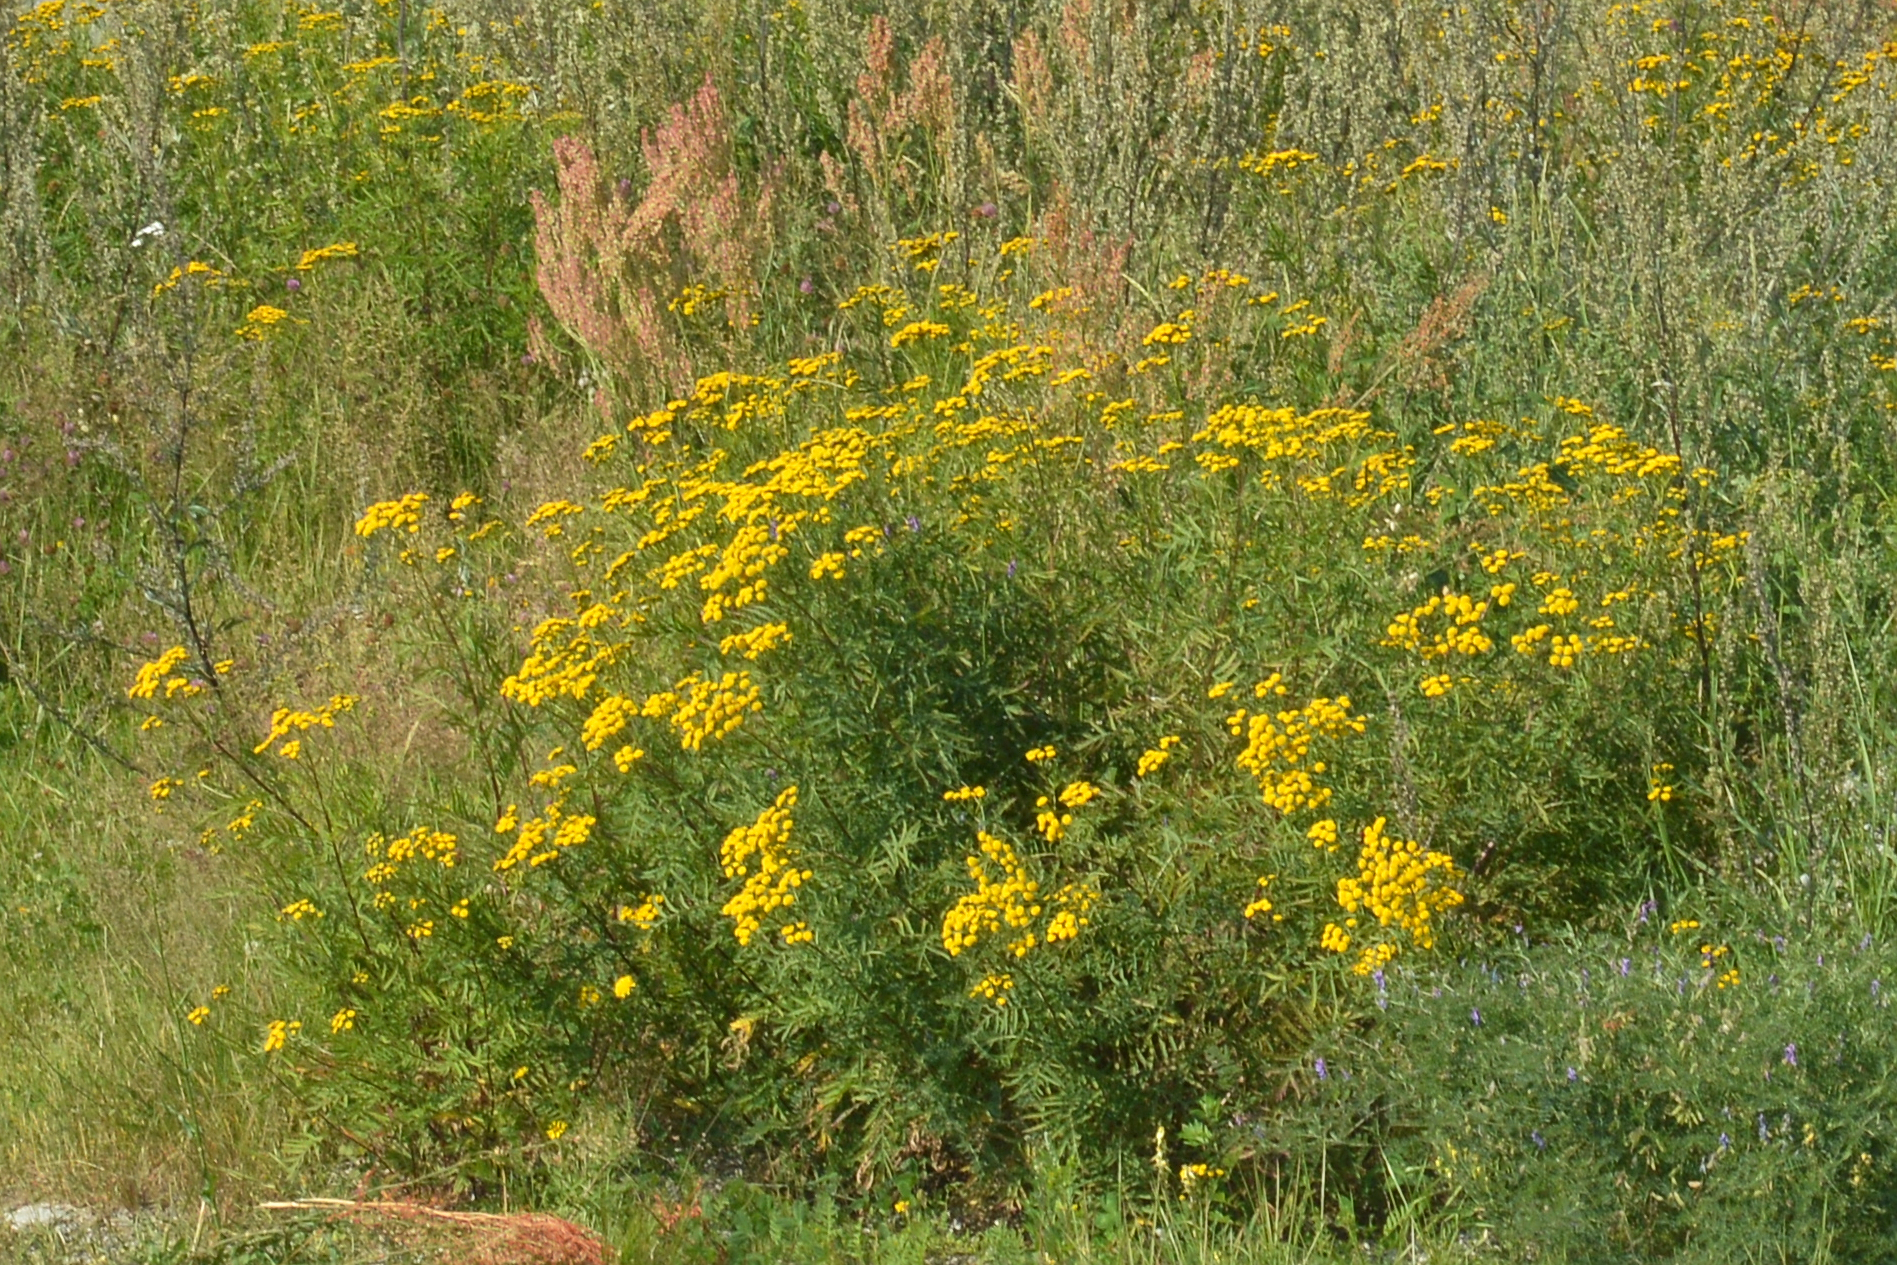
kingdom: Plantae
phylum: Tracheophyta
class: Magnoliopsida
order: Asterales
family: Asteraceae
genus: Tanacetum
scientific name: Tanacetum vulgare
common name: Common tansy
